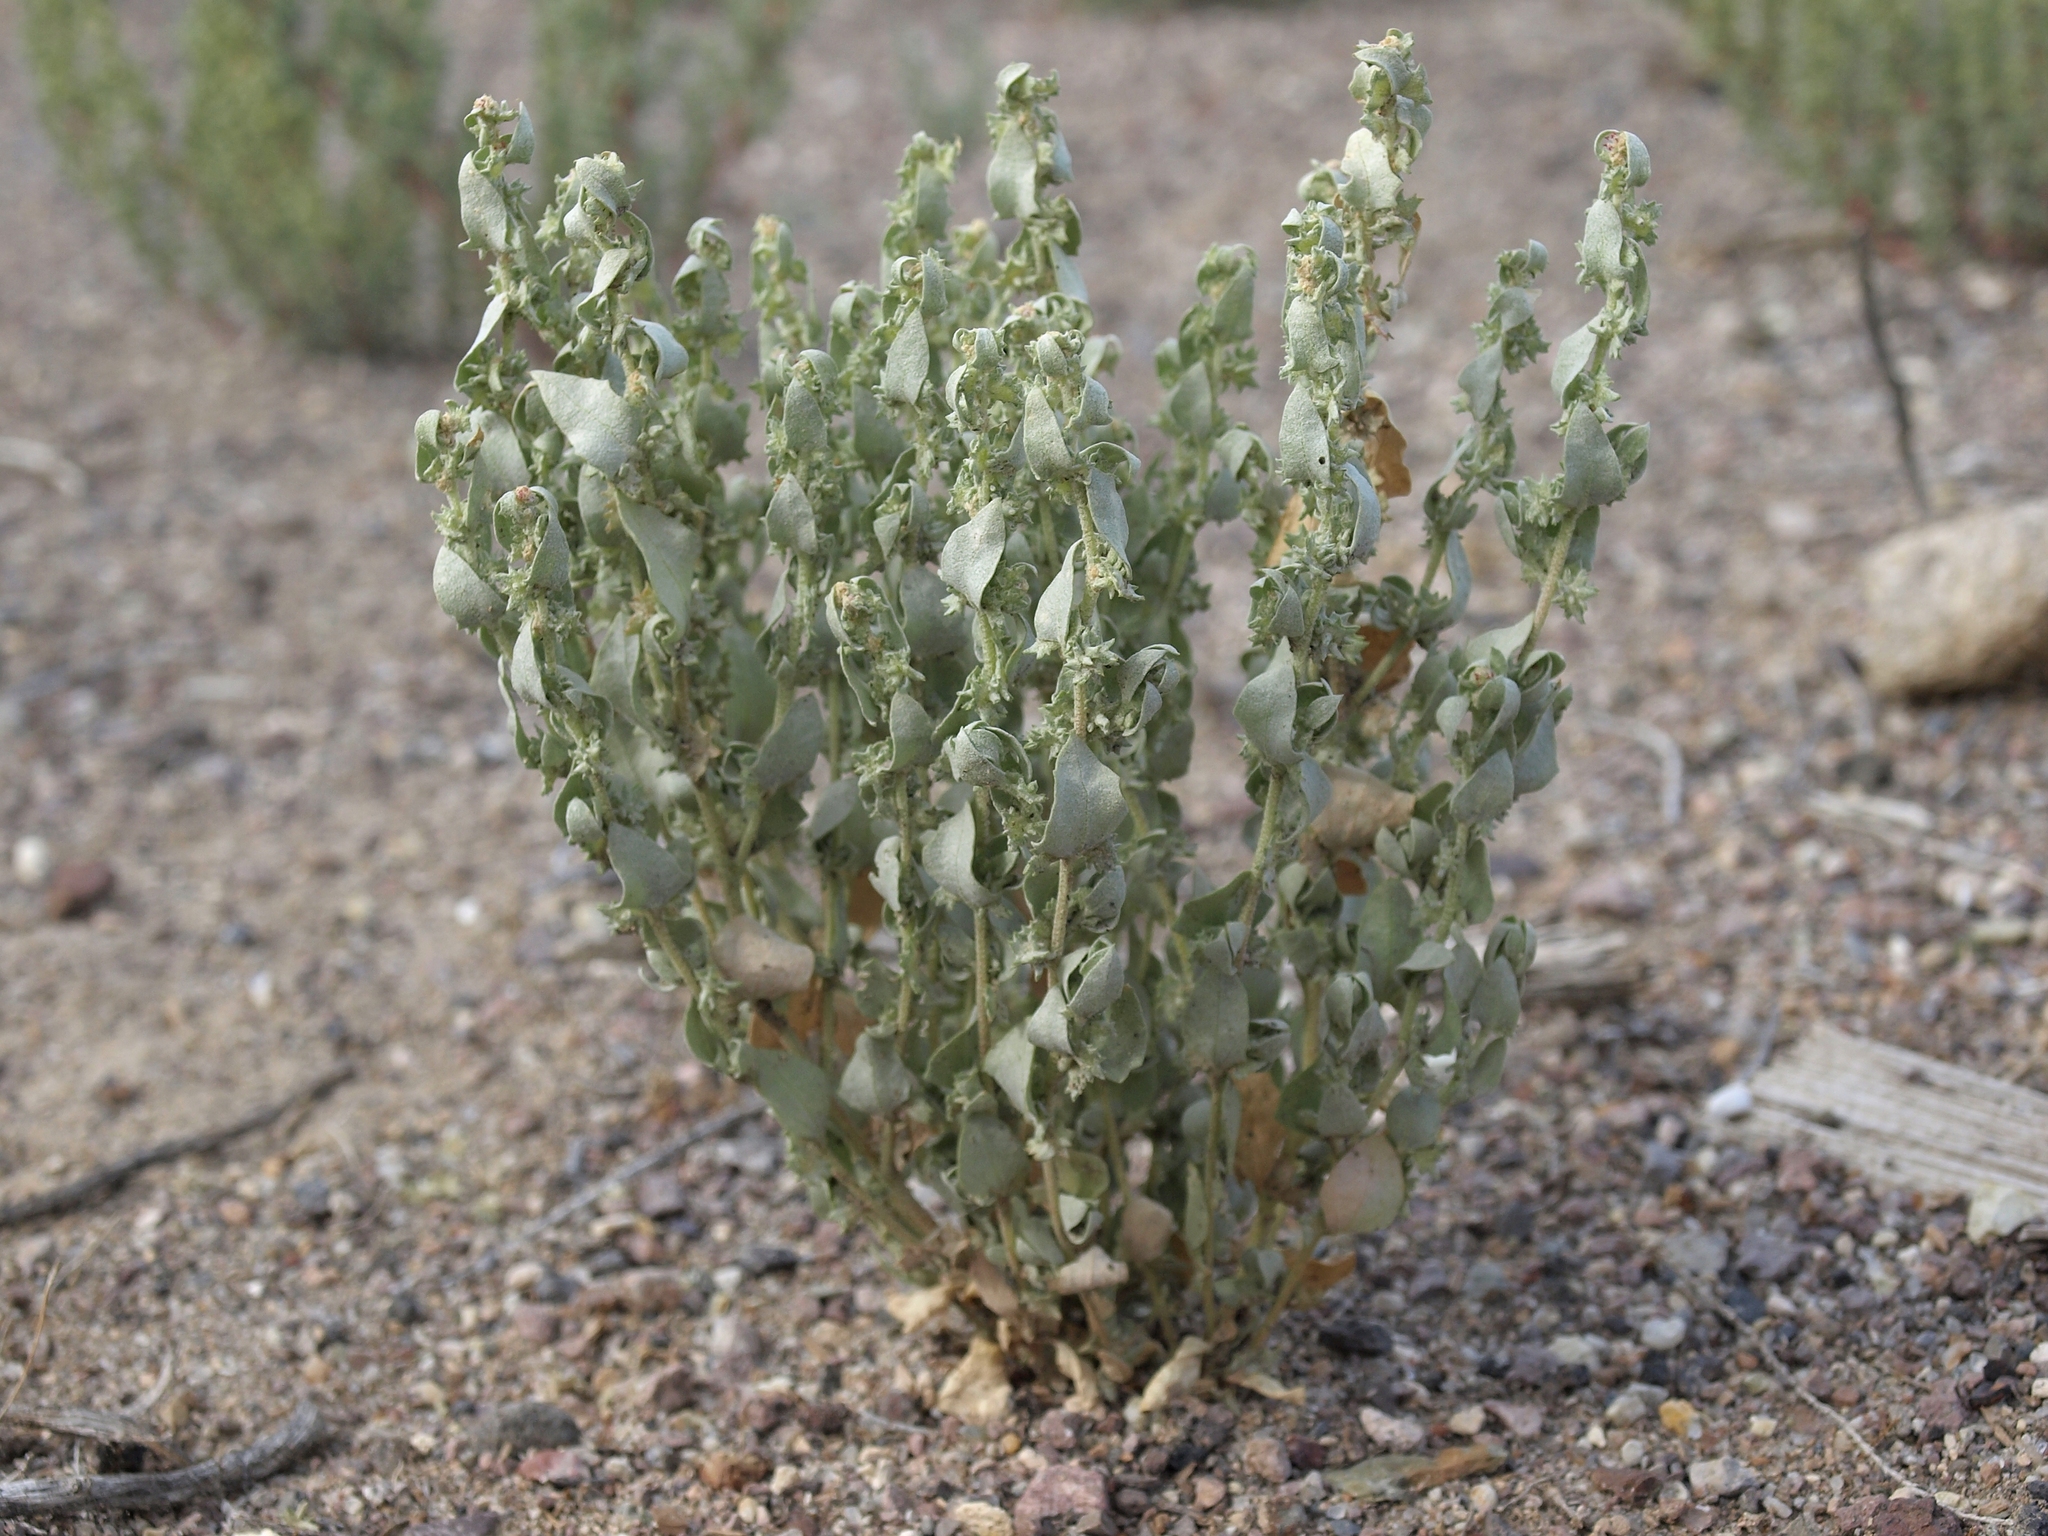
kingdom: Plantae
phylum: Tracheophyta
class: Magnoliopsida
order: Caryophyllales
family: Amaranthaceae
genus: Atriplex
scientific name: Atriplex argentea
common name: Silverscale
